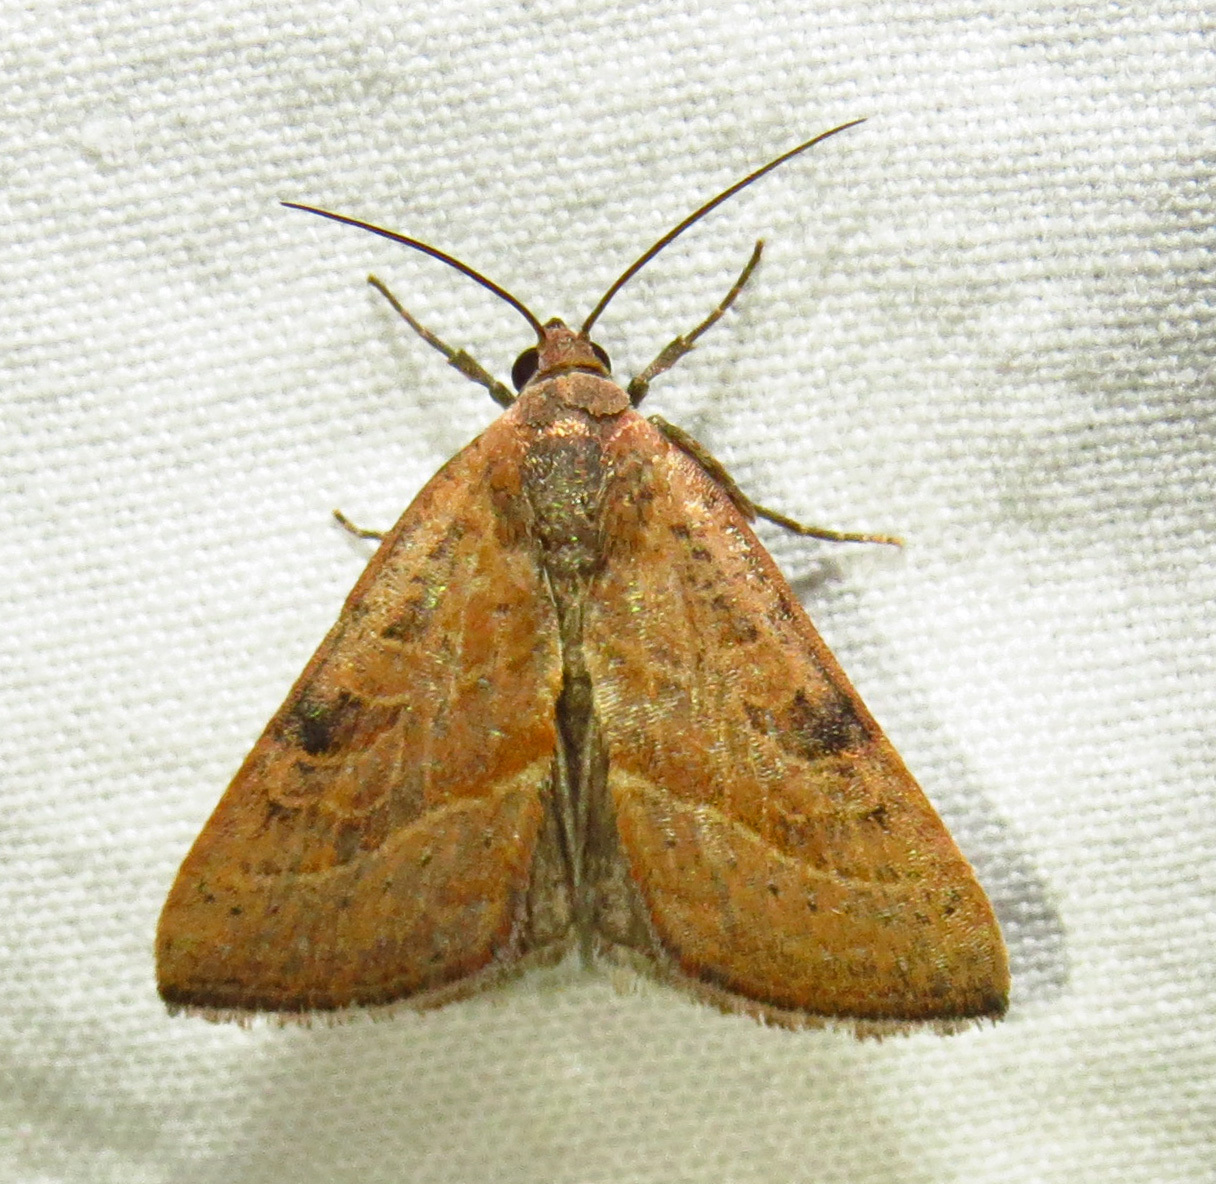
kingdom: Animalia
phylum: Arthropoda
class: Insecta
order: Lepidoptera
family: Noctuidae
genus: Galgula
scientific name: Galgula partita
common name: Wedgeling
